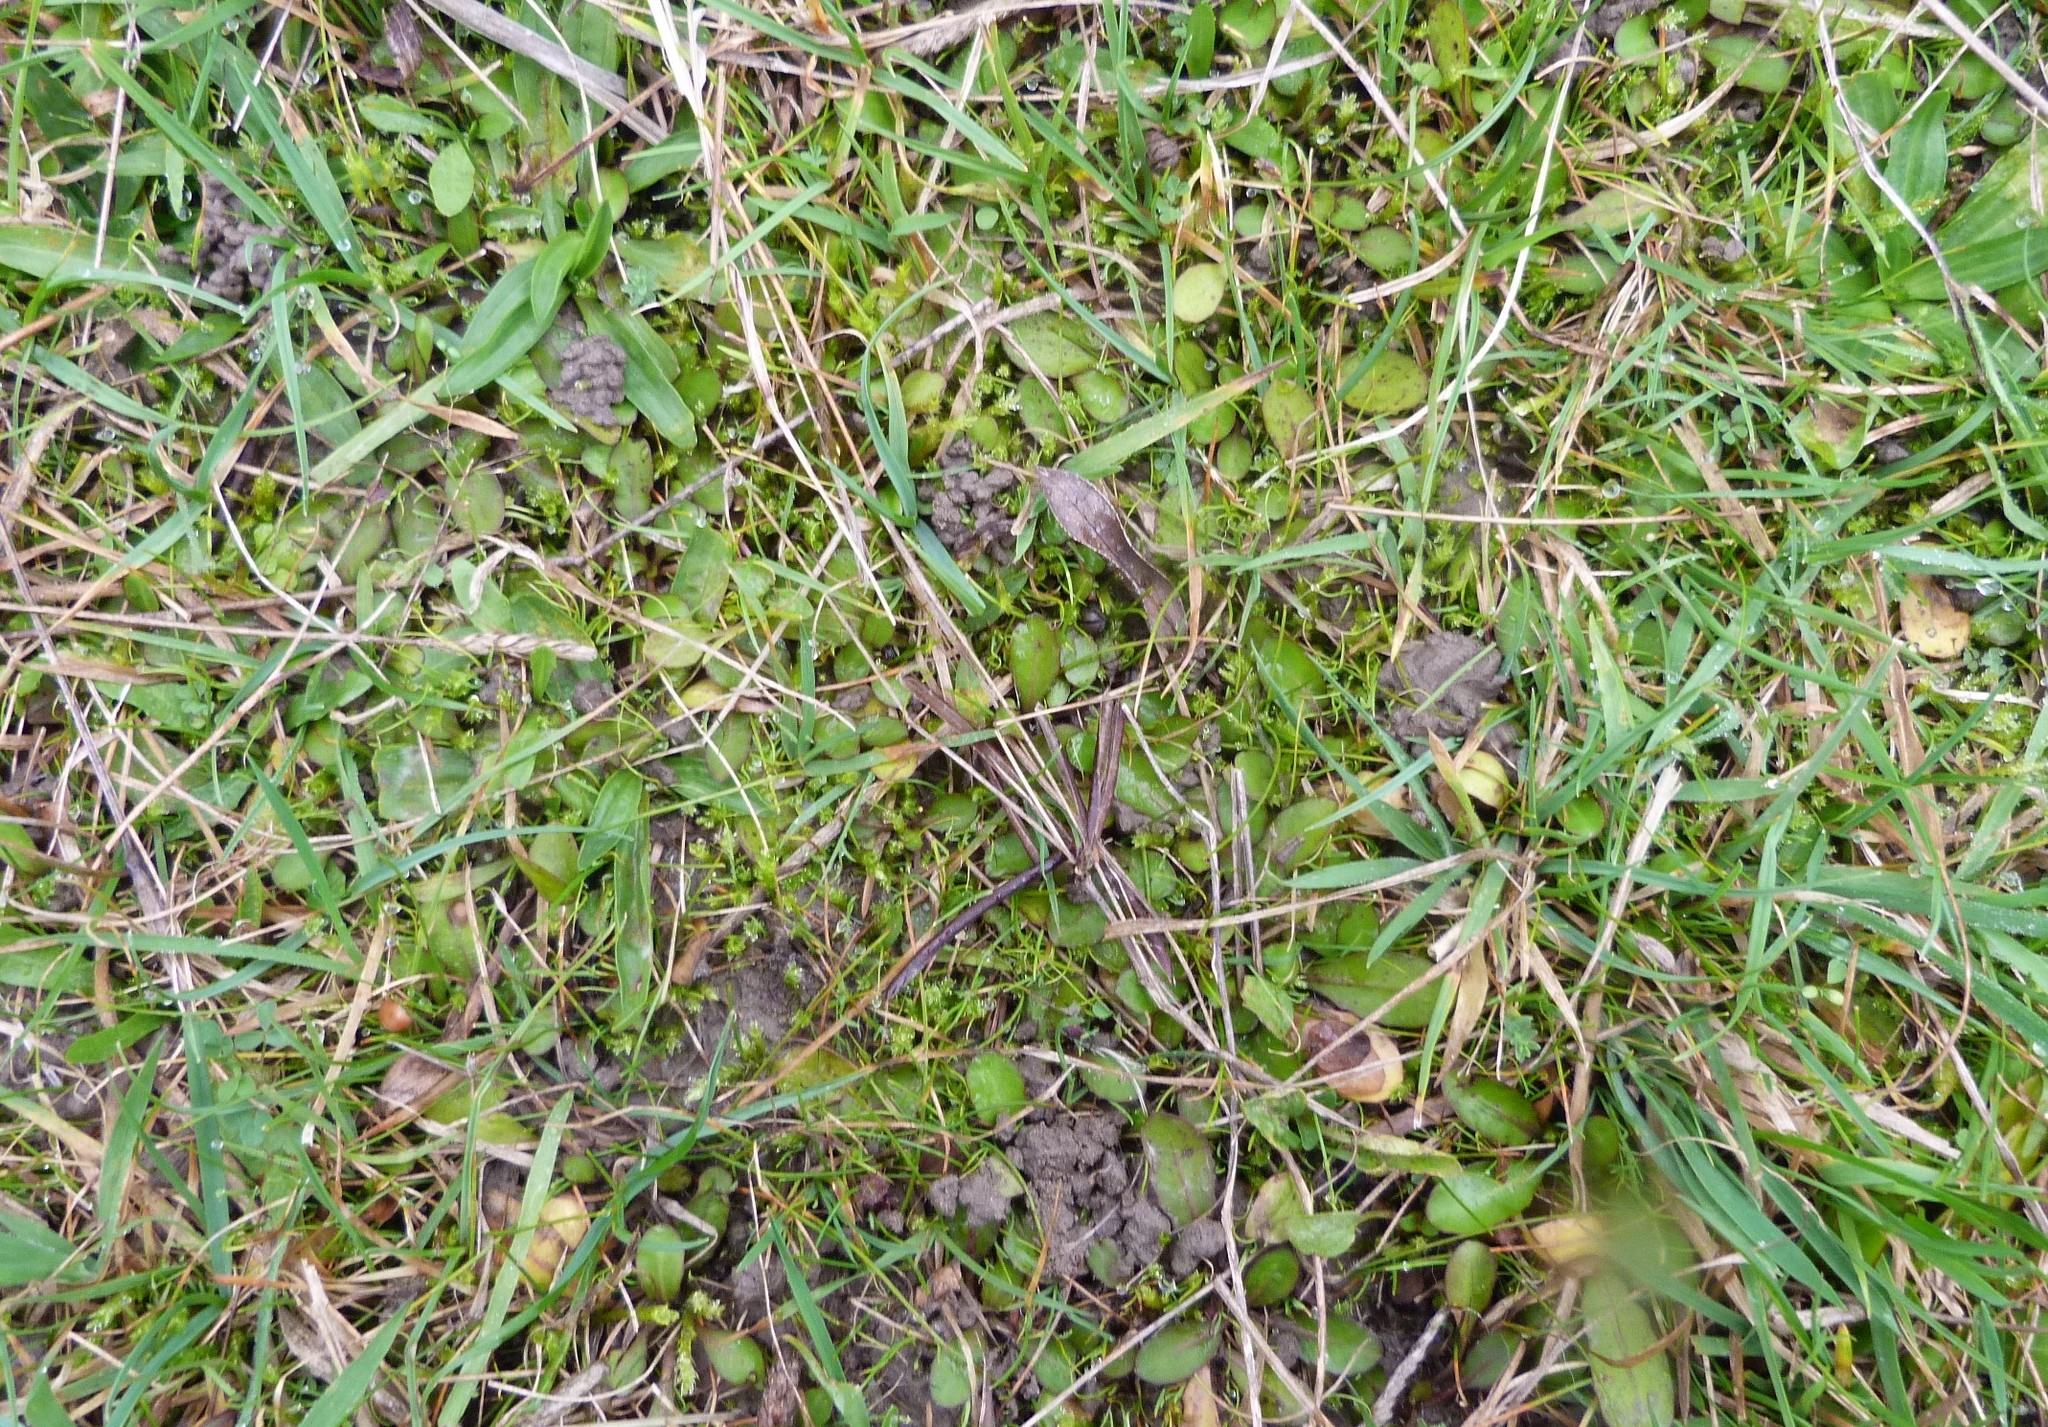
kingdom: Plantae
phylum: Tracheophyta
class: Magnoliopsida
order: Lamiales
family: Mazaceae
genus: Mazus
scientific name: Mazus novaezeelandiae
